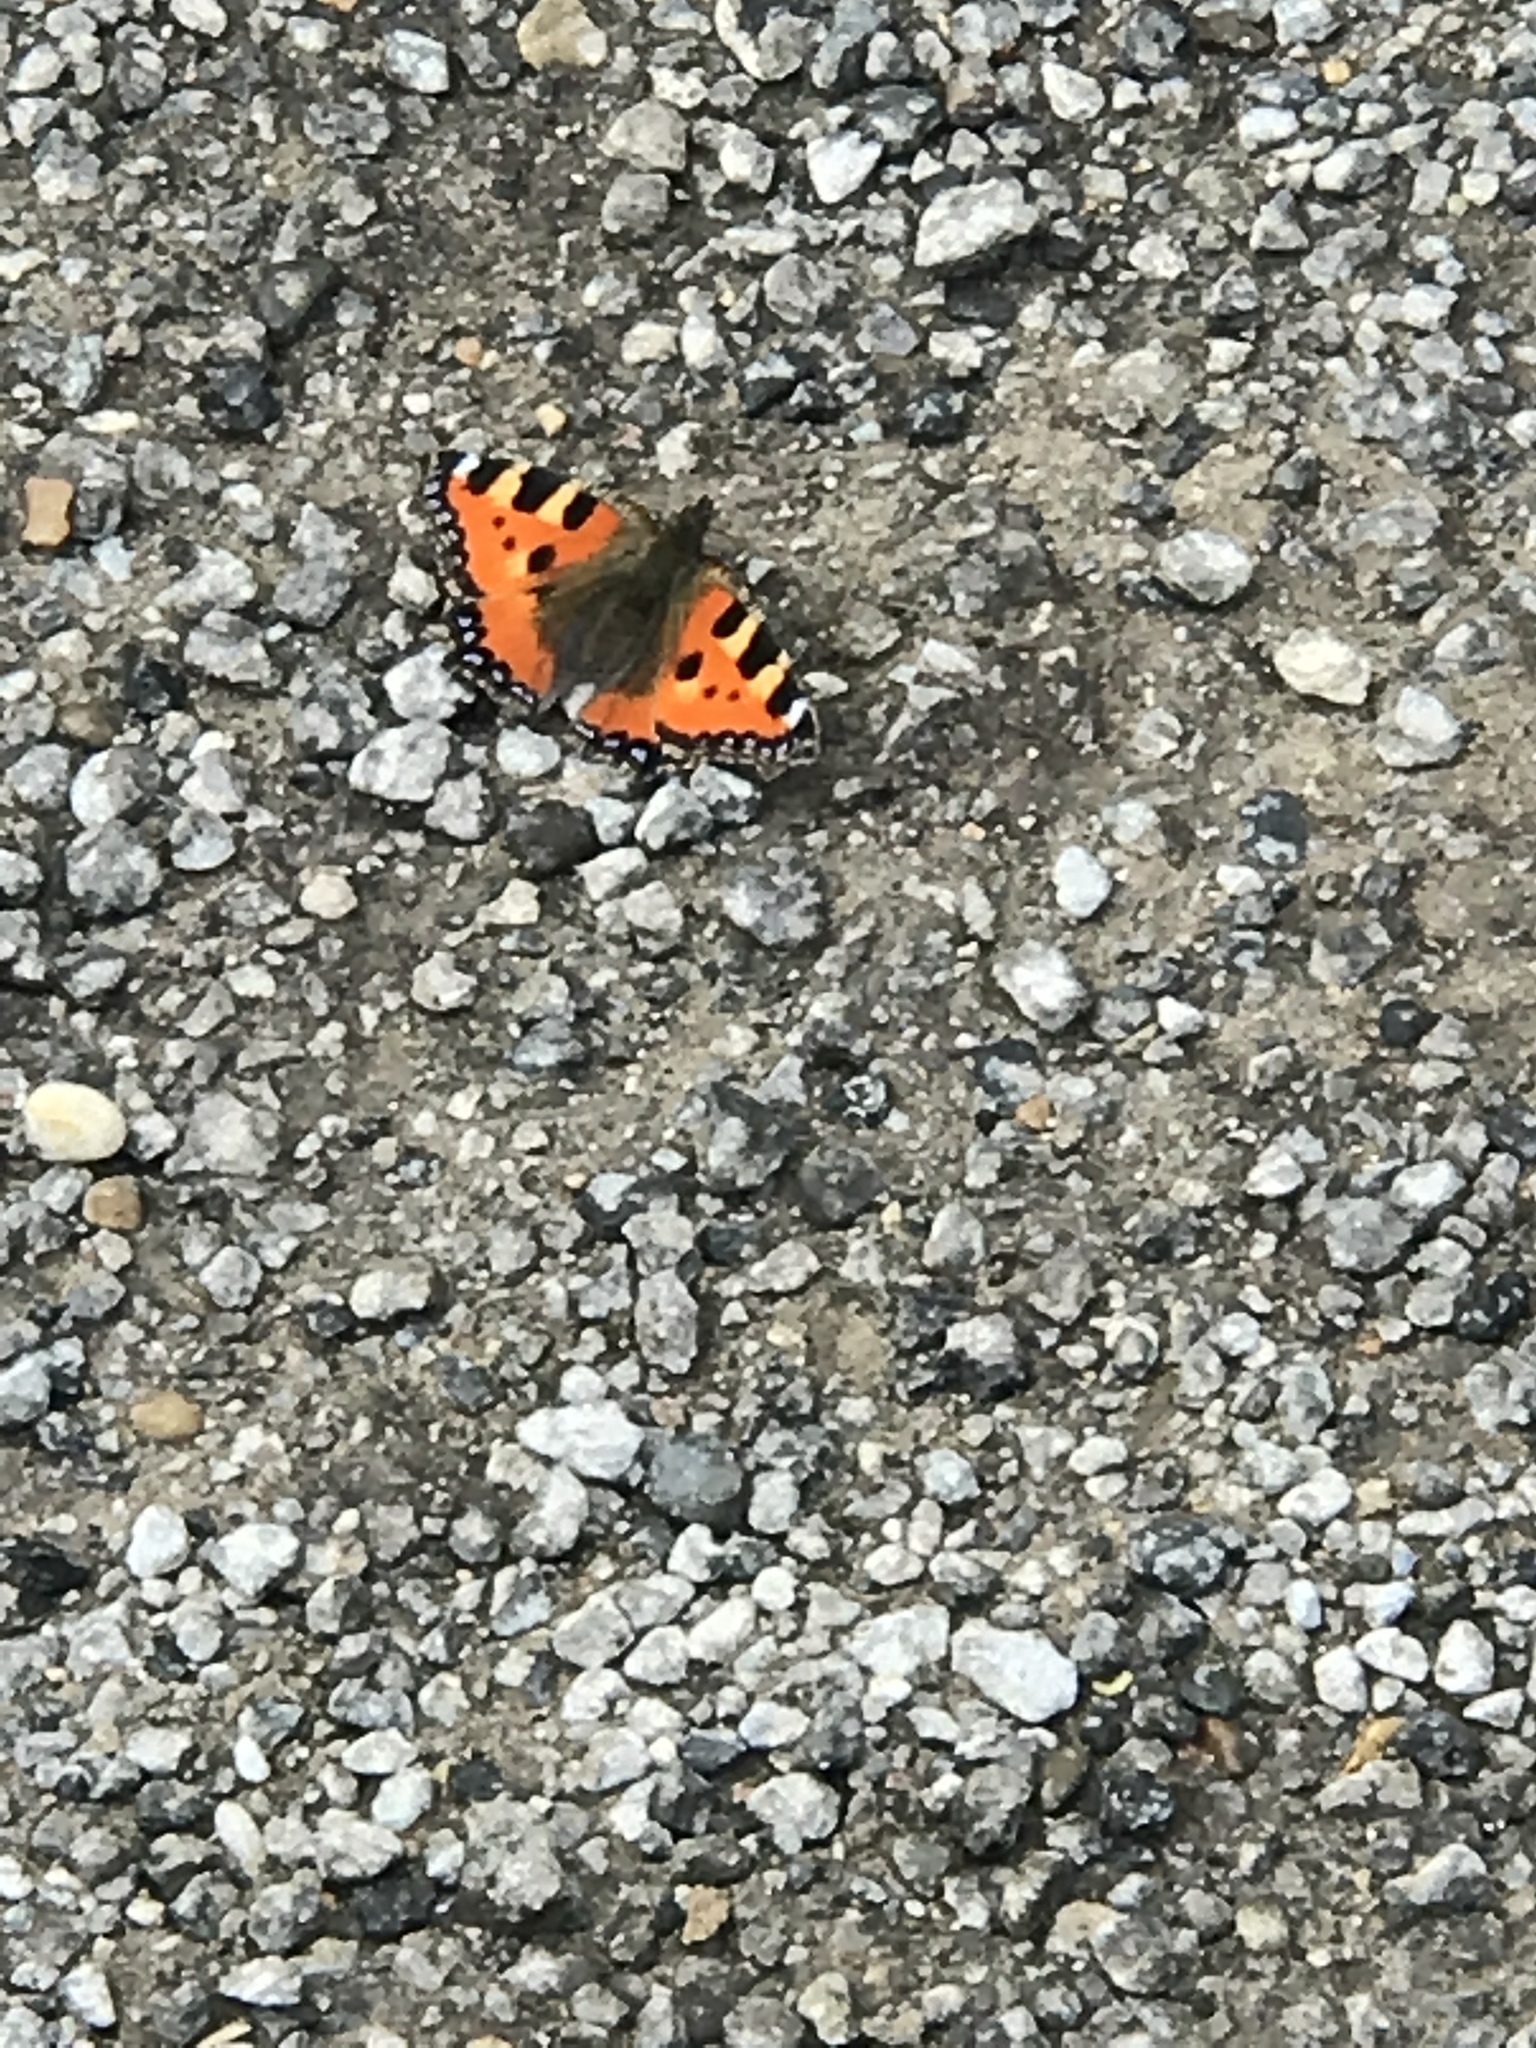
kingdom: Animalia
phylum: Arthropoda
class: Insecta
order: Lepidoptera
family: Nymphalidae
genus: Aglais
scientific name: Aglais urticae
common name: Small tortoiseshell
